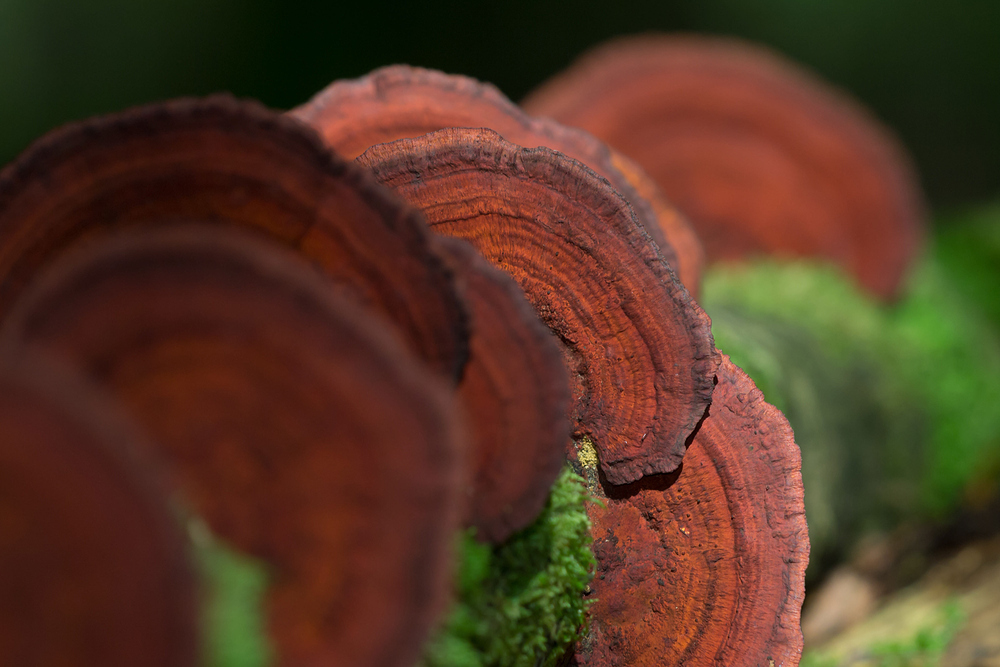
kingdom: Fungi
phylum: Basidiomycota
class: Agaricomycetes
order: Polyporales
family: Polyporaceae
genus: Daedaleopsis
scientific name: Daedaleopsis tricolor
